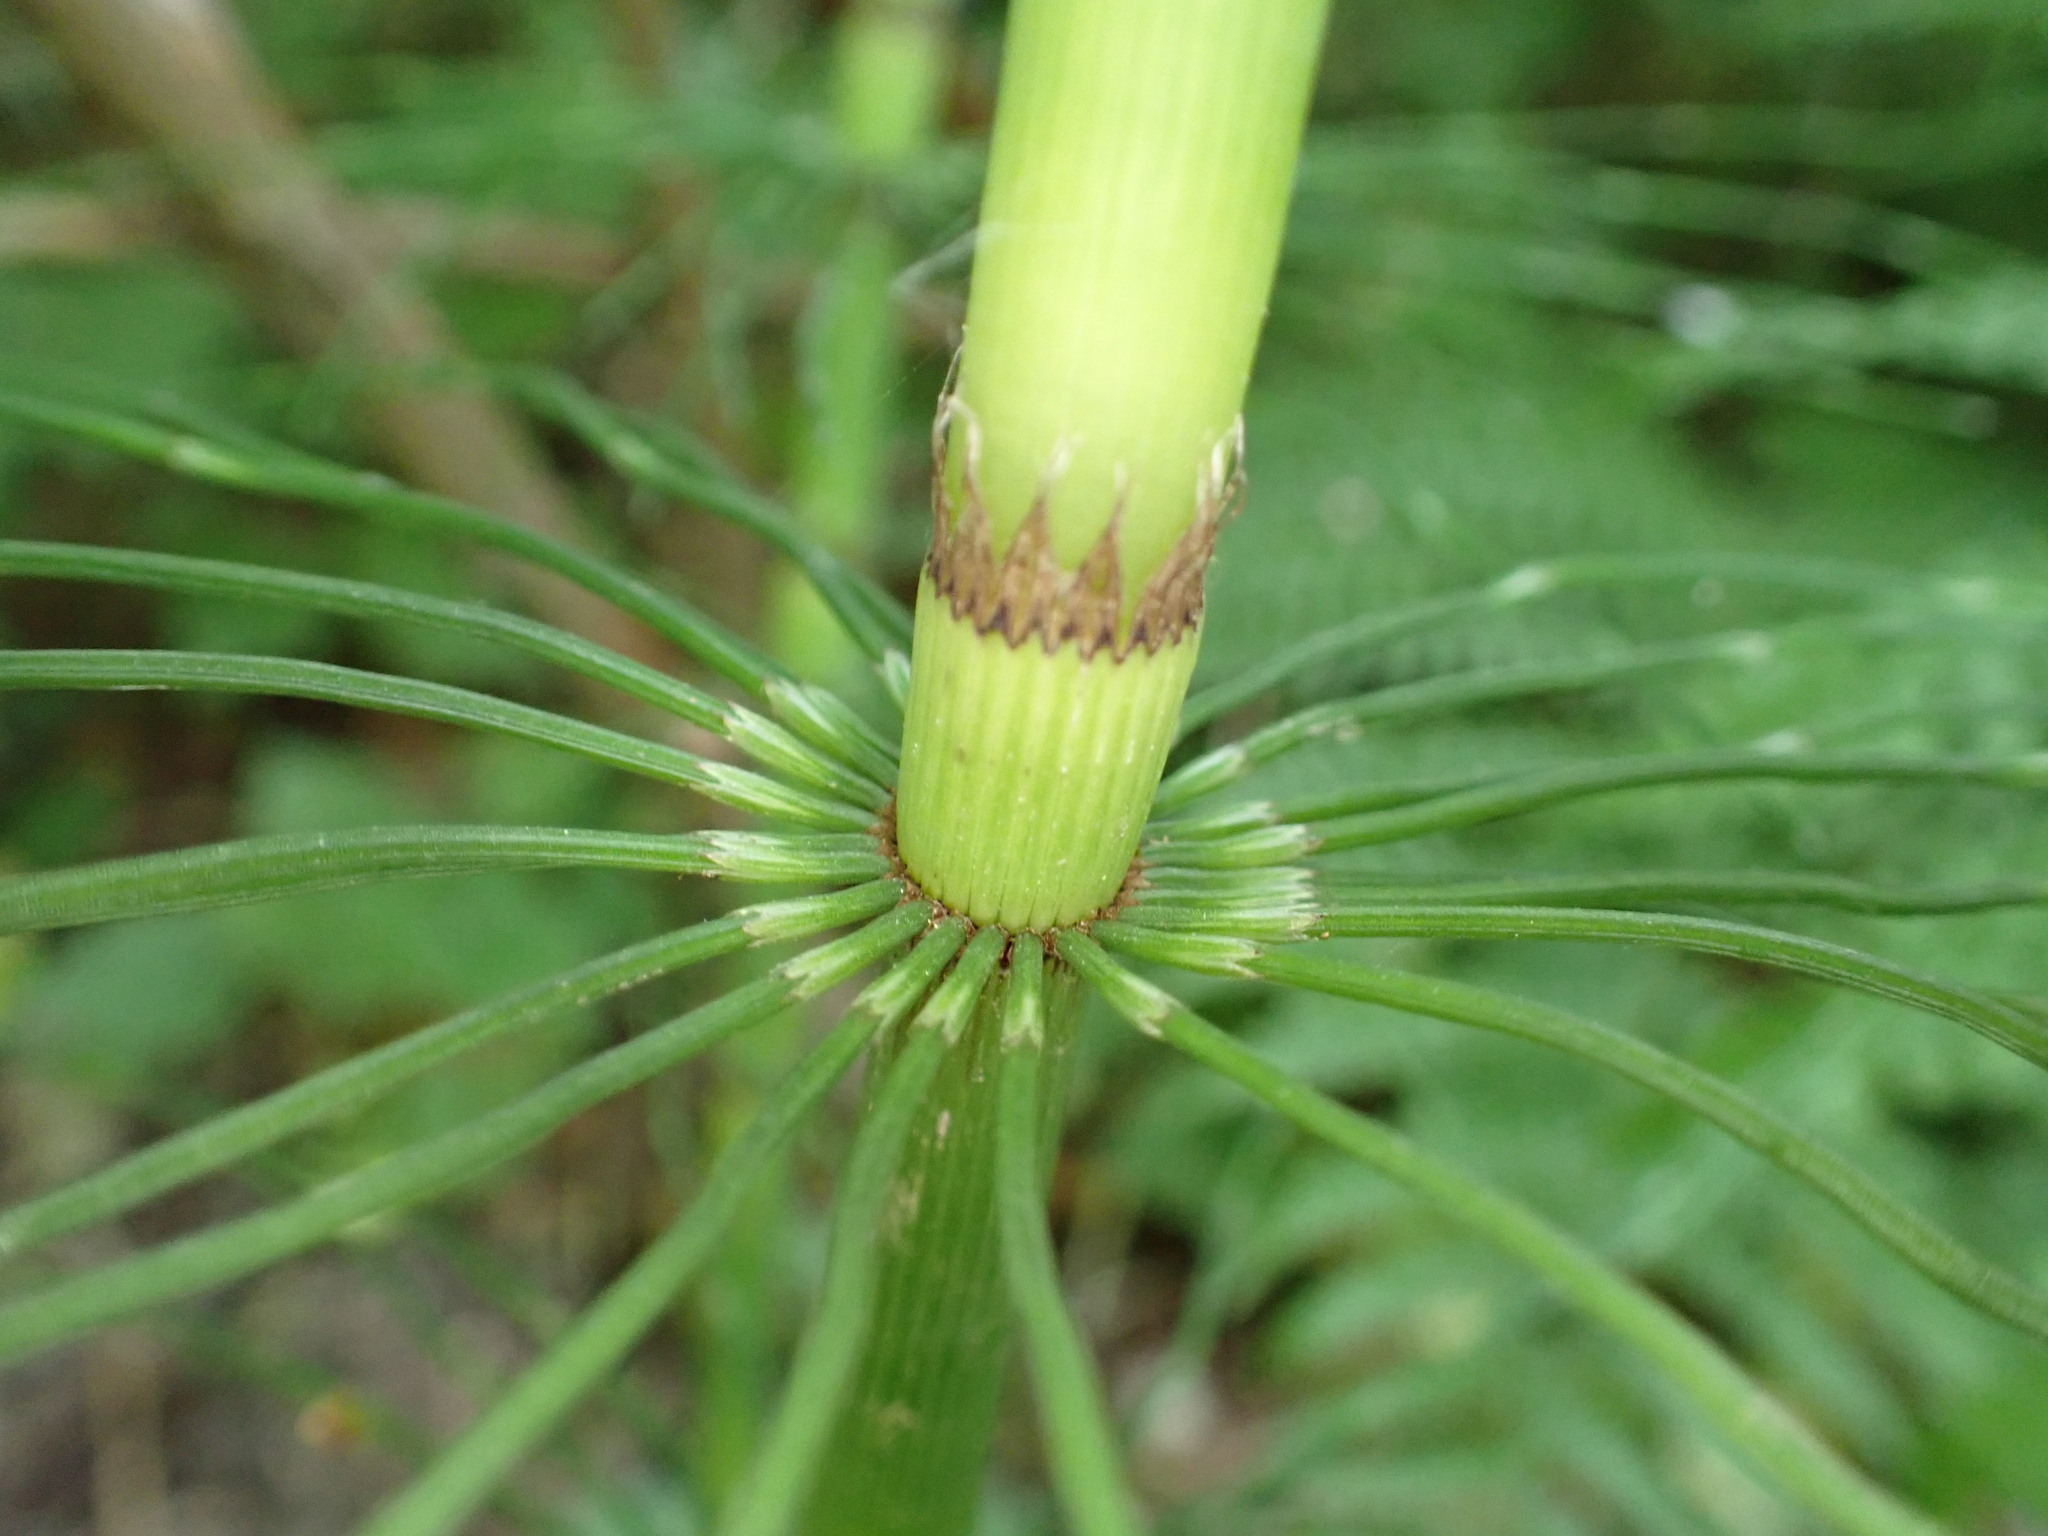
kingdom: Plantae
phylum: Tracheophyta
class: Polypodiopsida
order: Equisetales
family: Equisetaceae
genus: Equisetum
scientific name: Equisetum braunii
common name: Braun's horsetail
